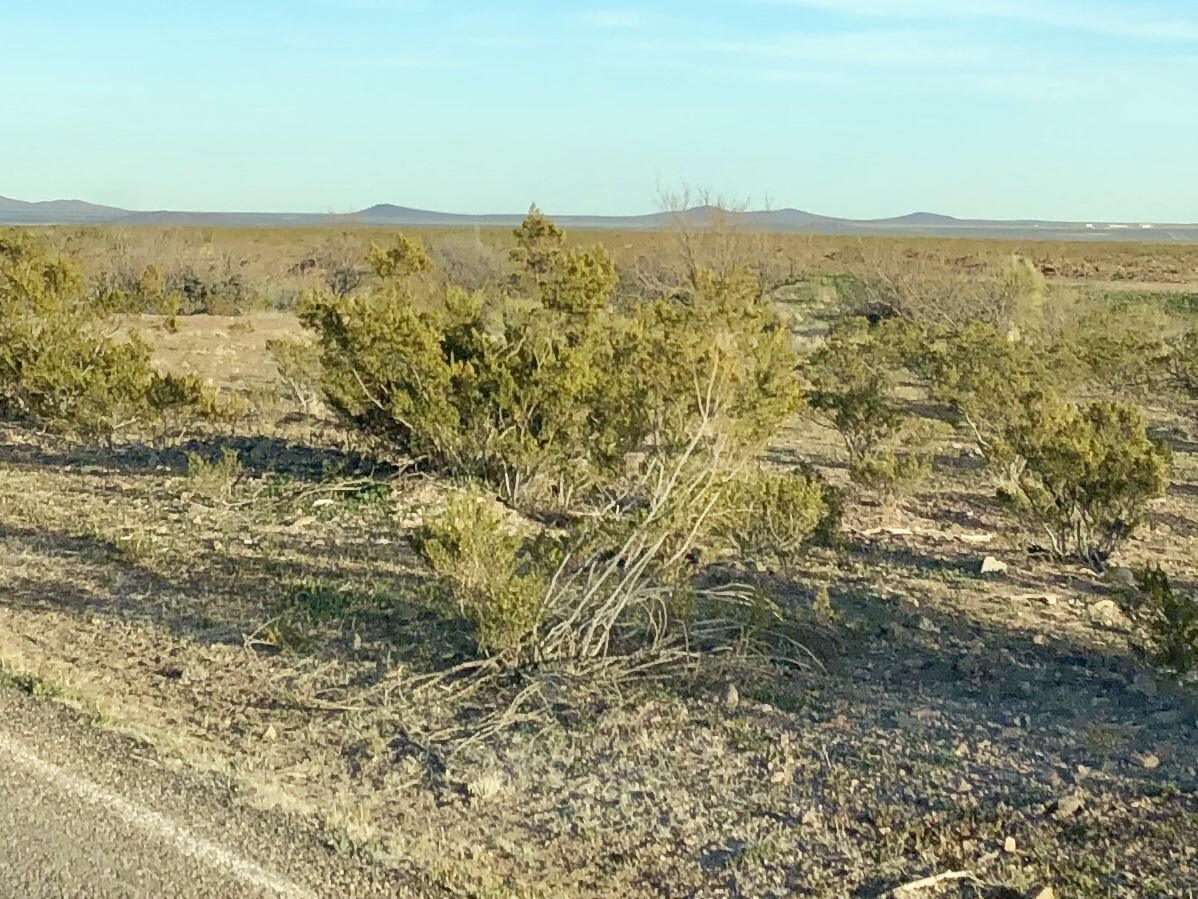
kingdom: Plantae
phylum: Tracheophyta
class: Magnoliopsida
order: Zygophyllales
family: Zygophyllaceae
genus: Larrea
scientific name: Larrea tridentata
